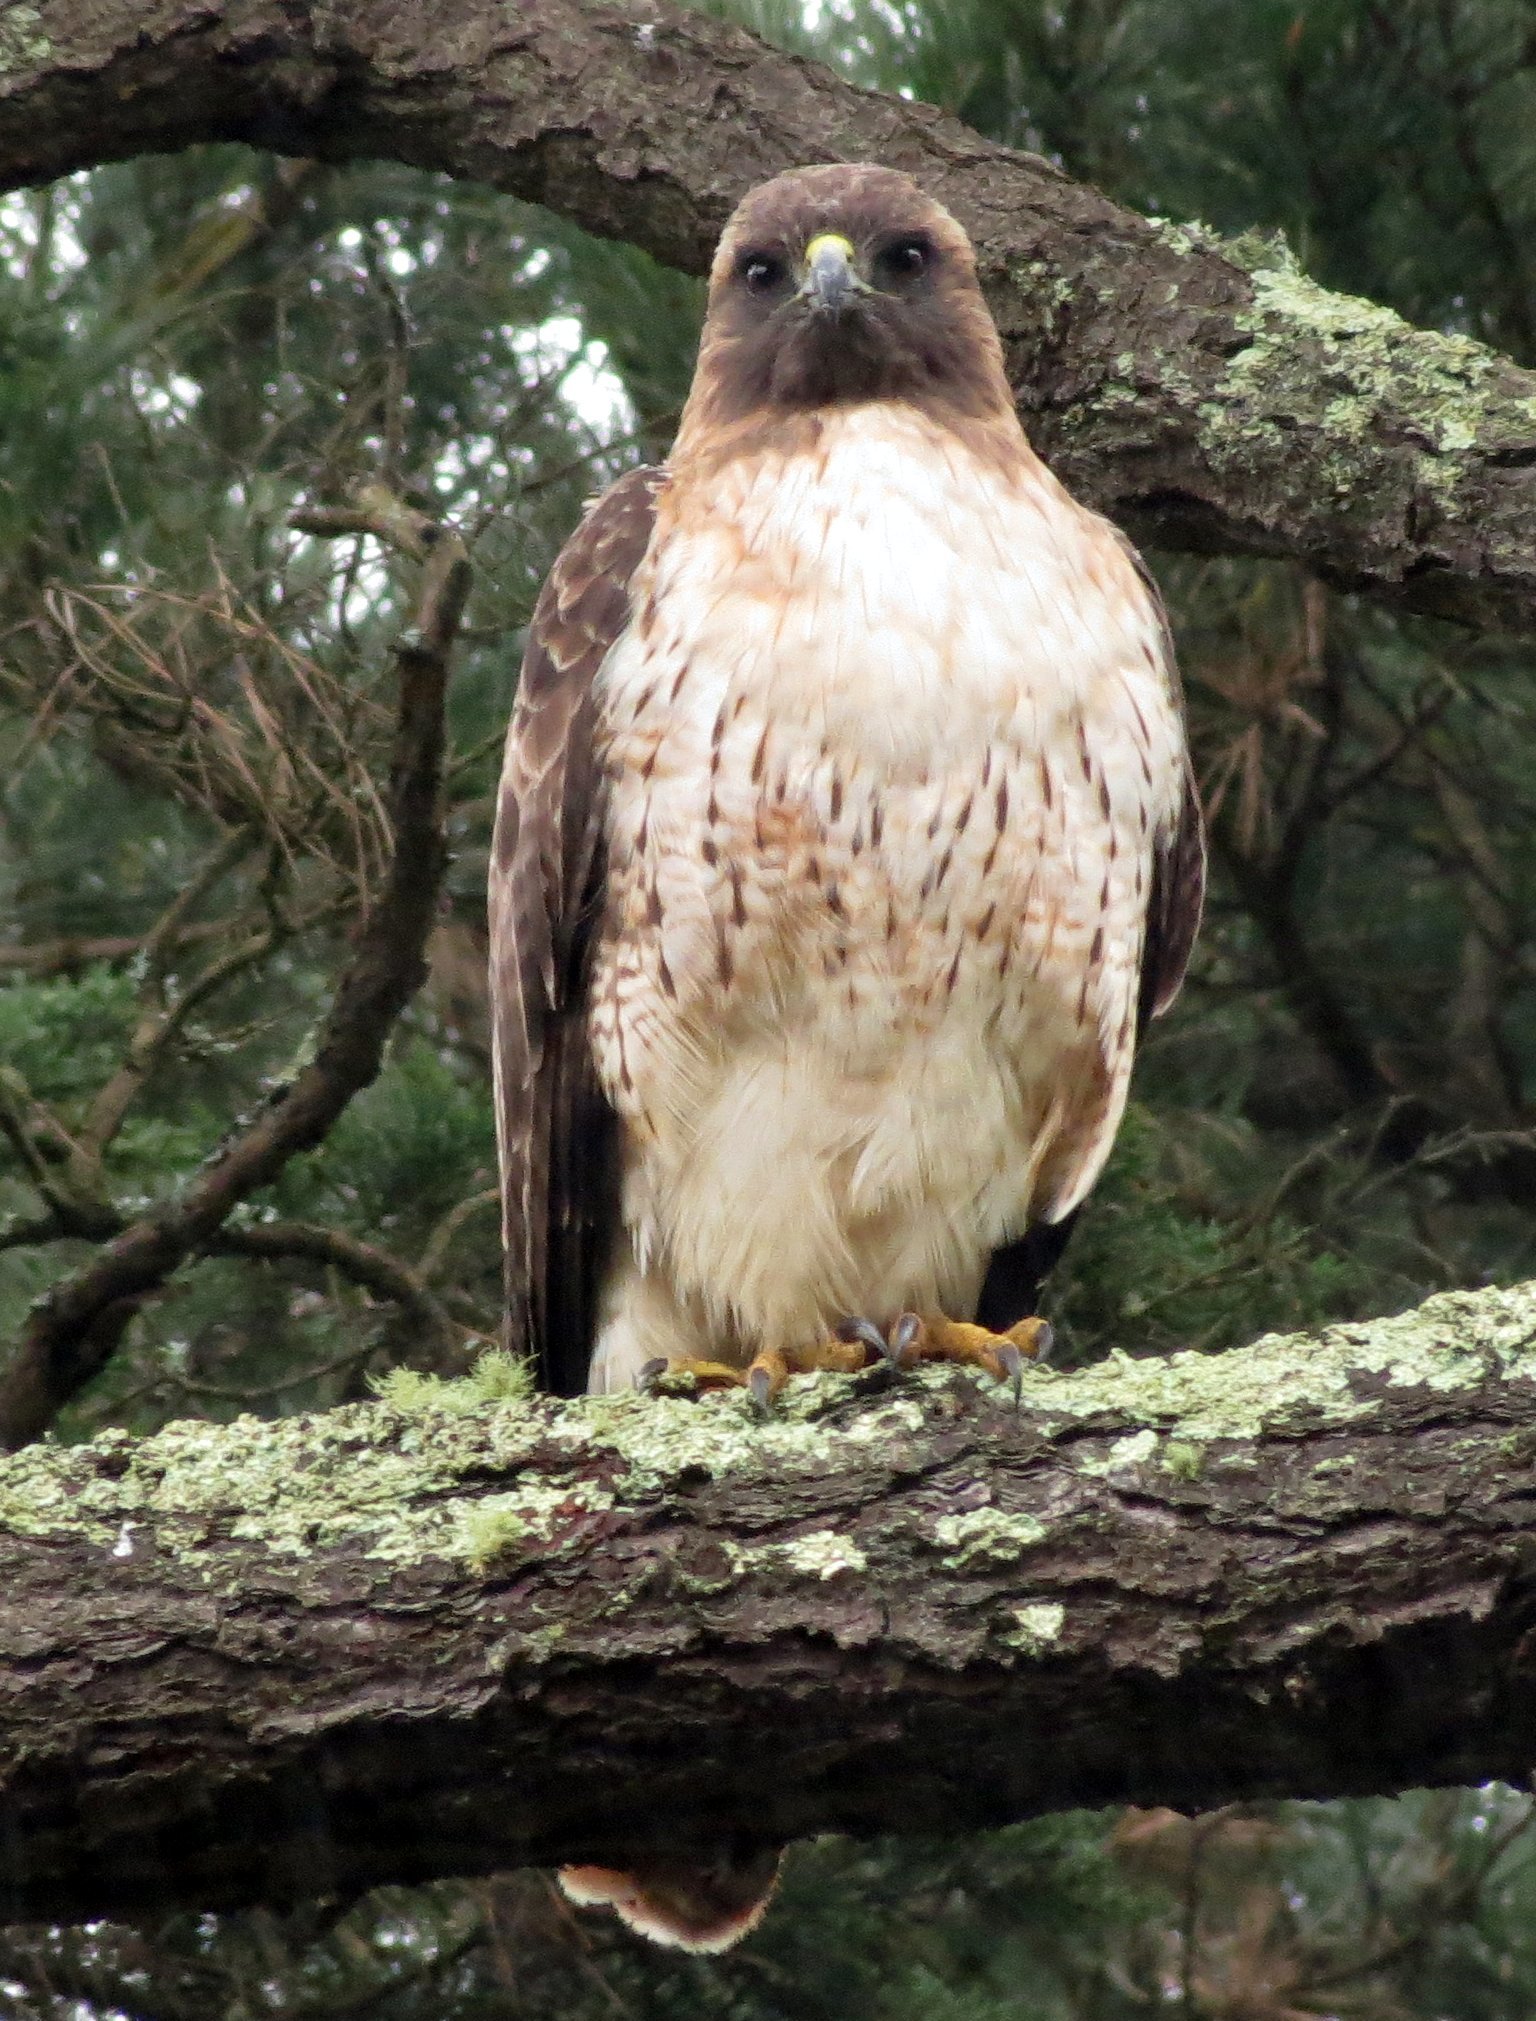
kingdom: Animalia
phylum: Chordata
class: Aves
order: Accipitriformes
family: Accipitridae
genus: Buteo
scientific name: Buteo jamaicensis
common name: Red-tailed hawk
